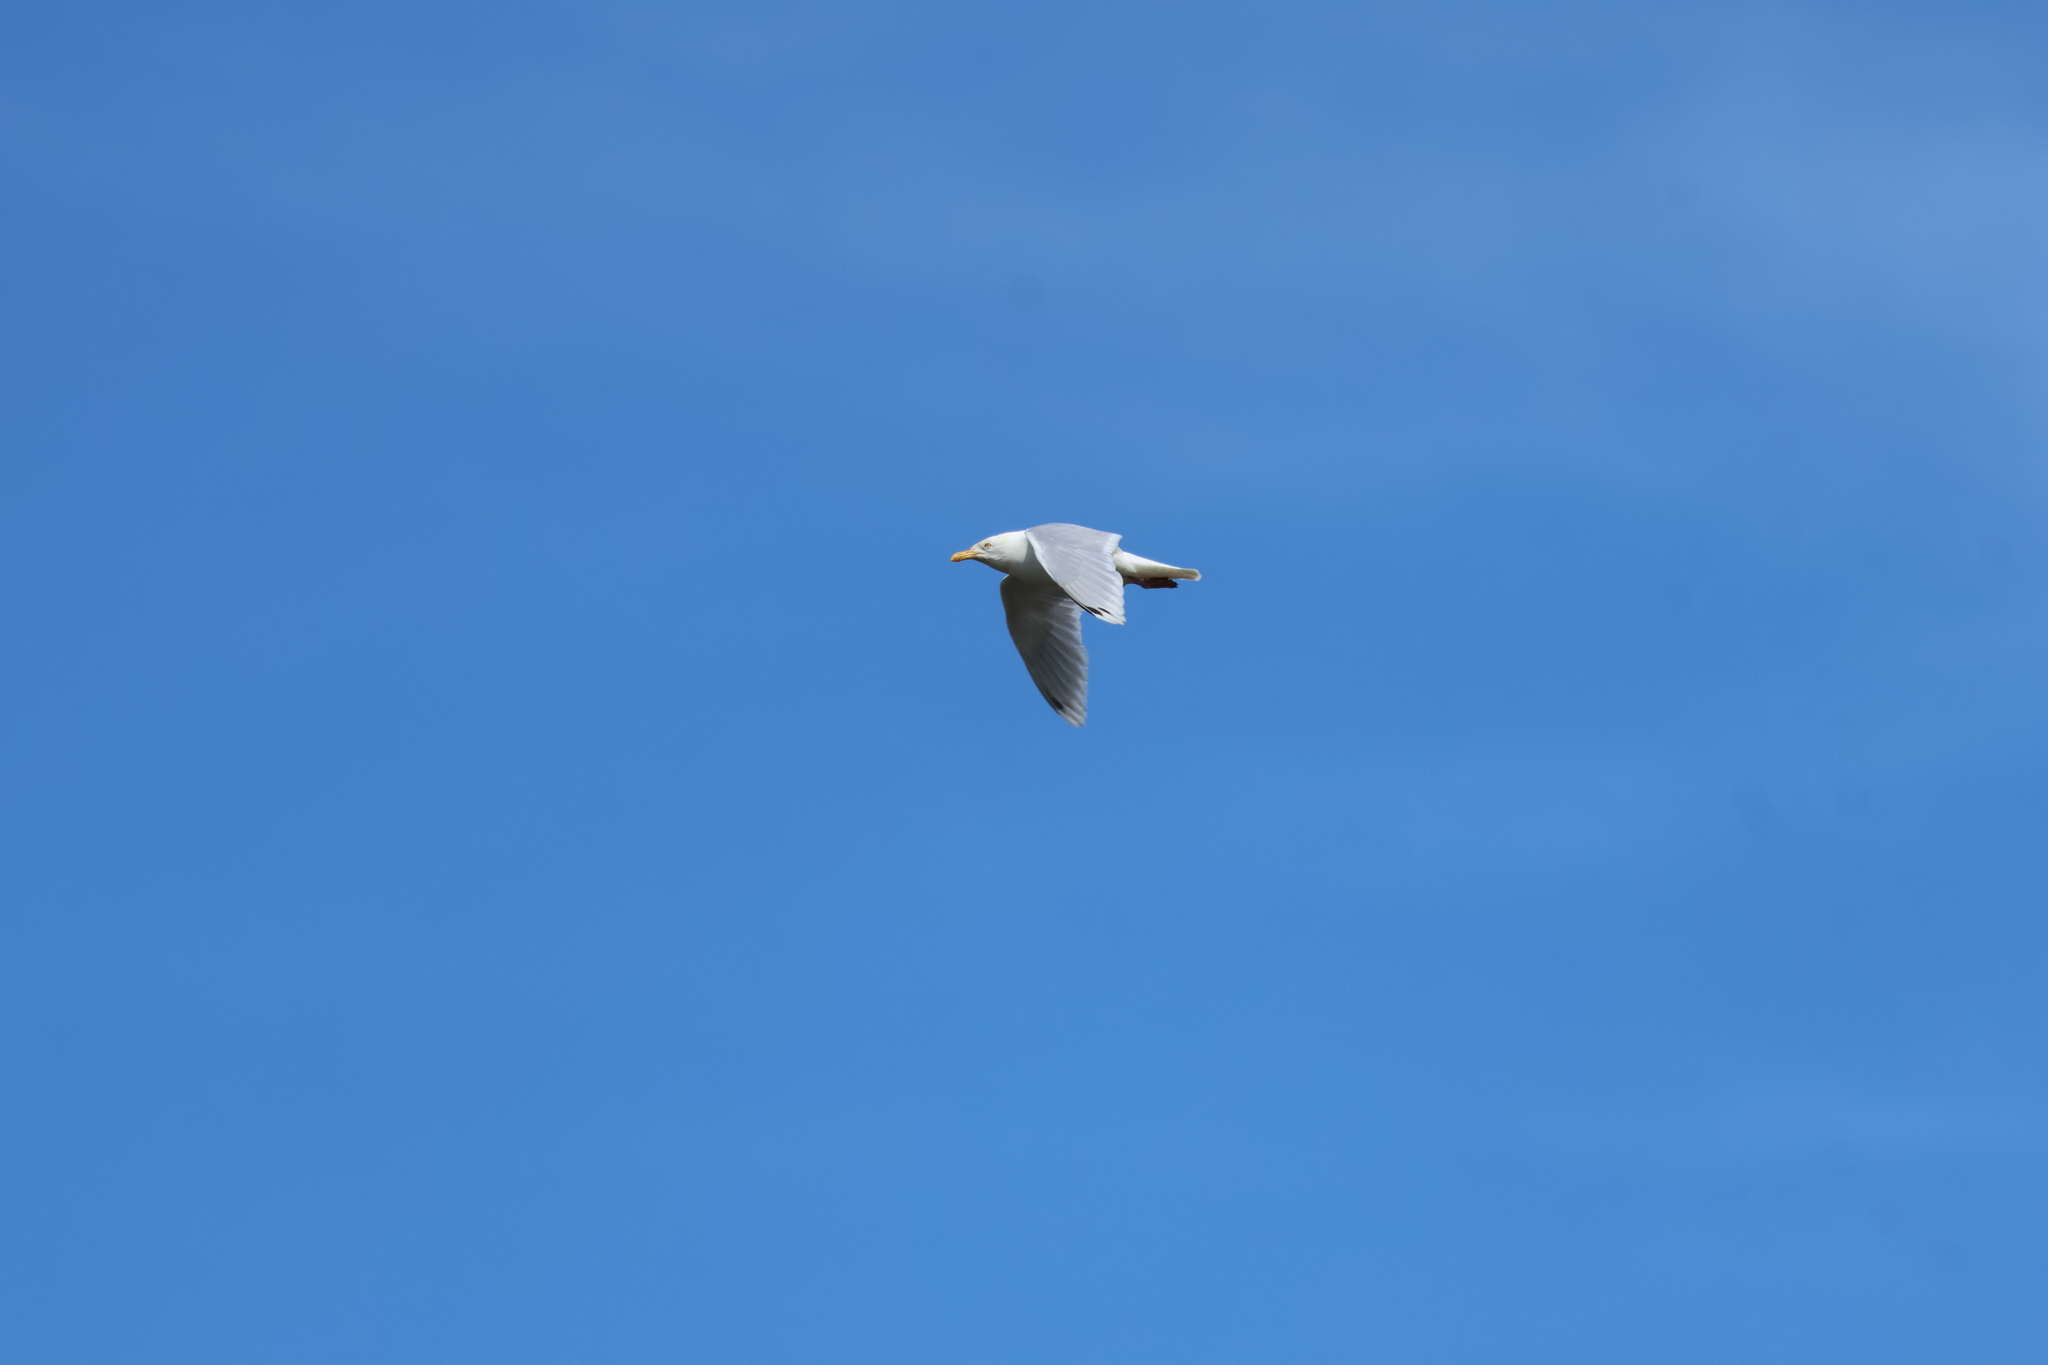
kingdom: Animalia
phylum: Chordata
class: Aves
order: Charadriiformes
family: Laridae
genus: Larus
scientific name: Larus
